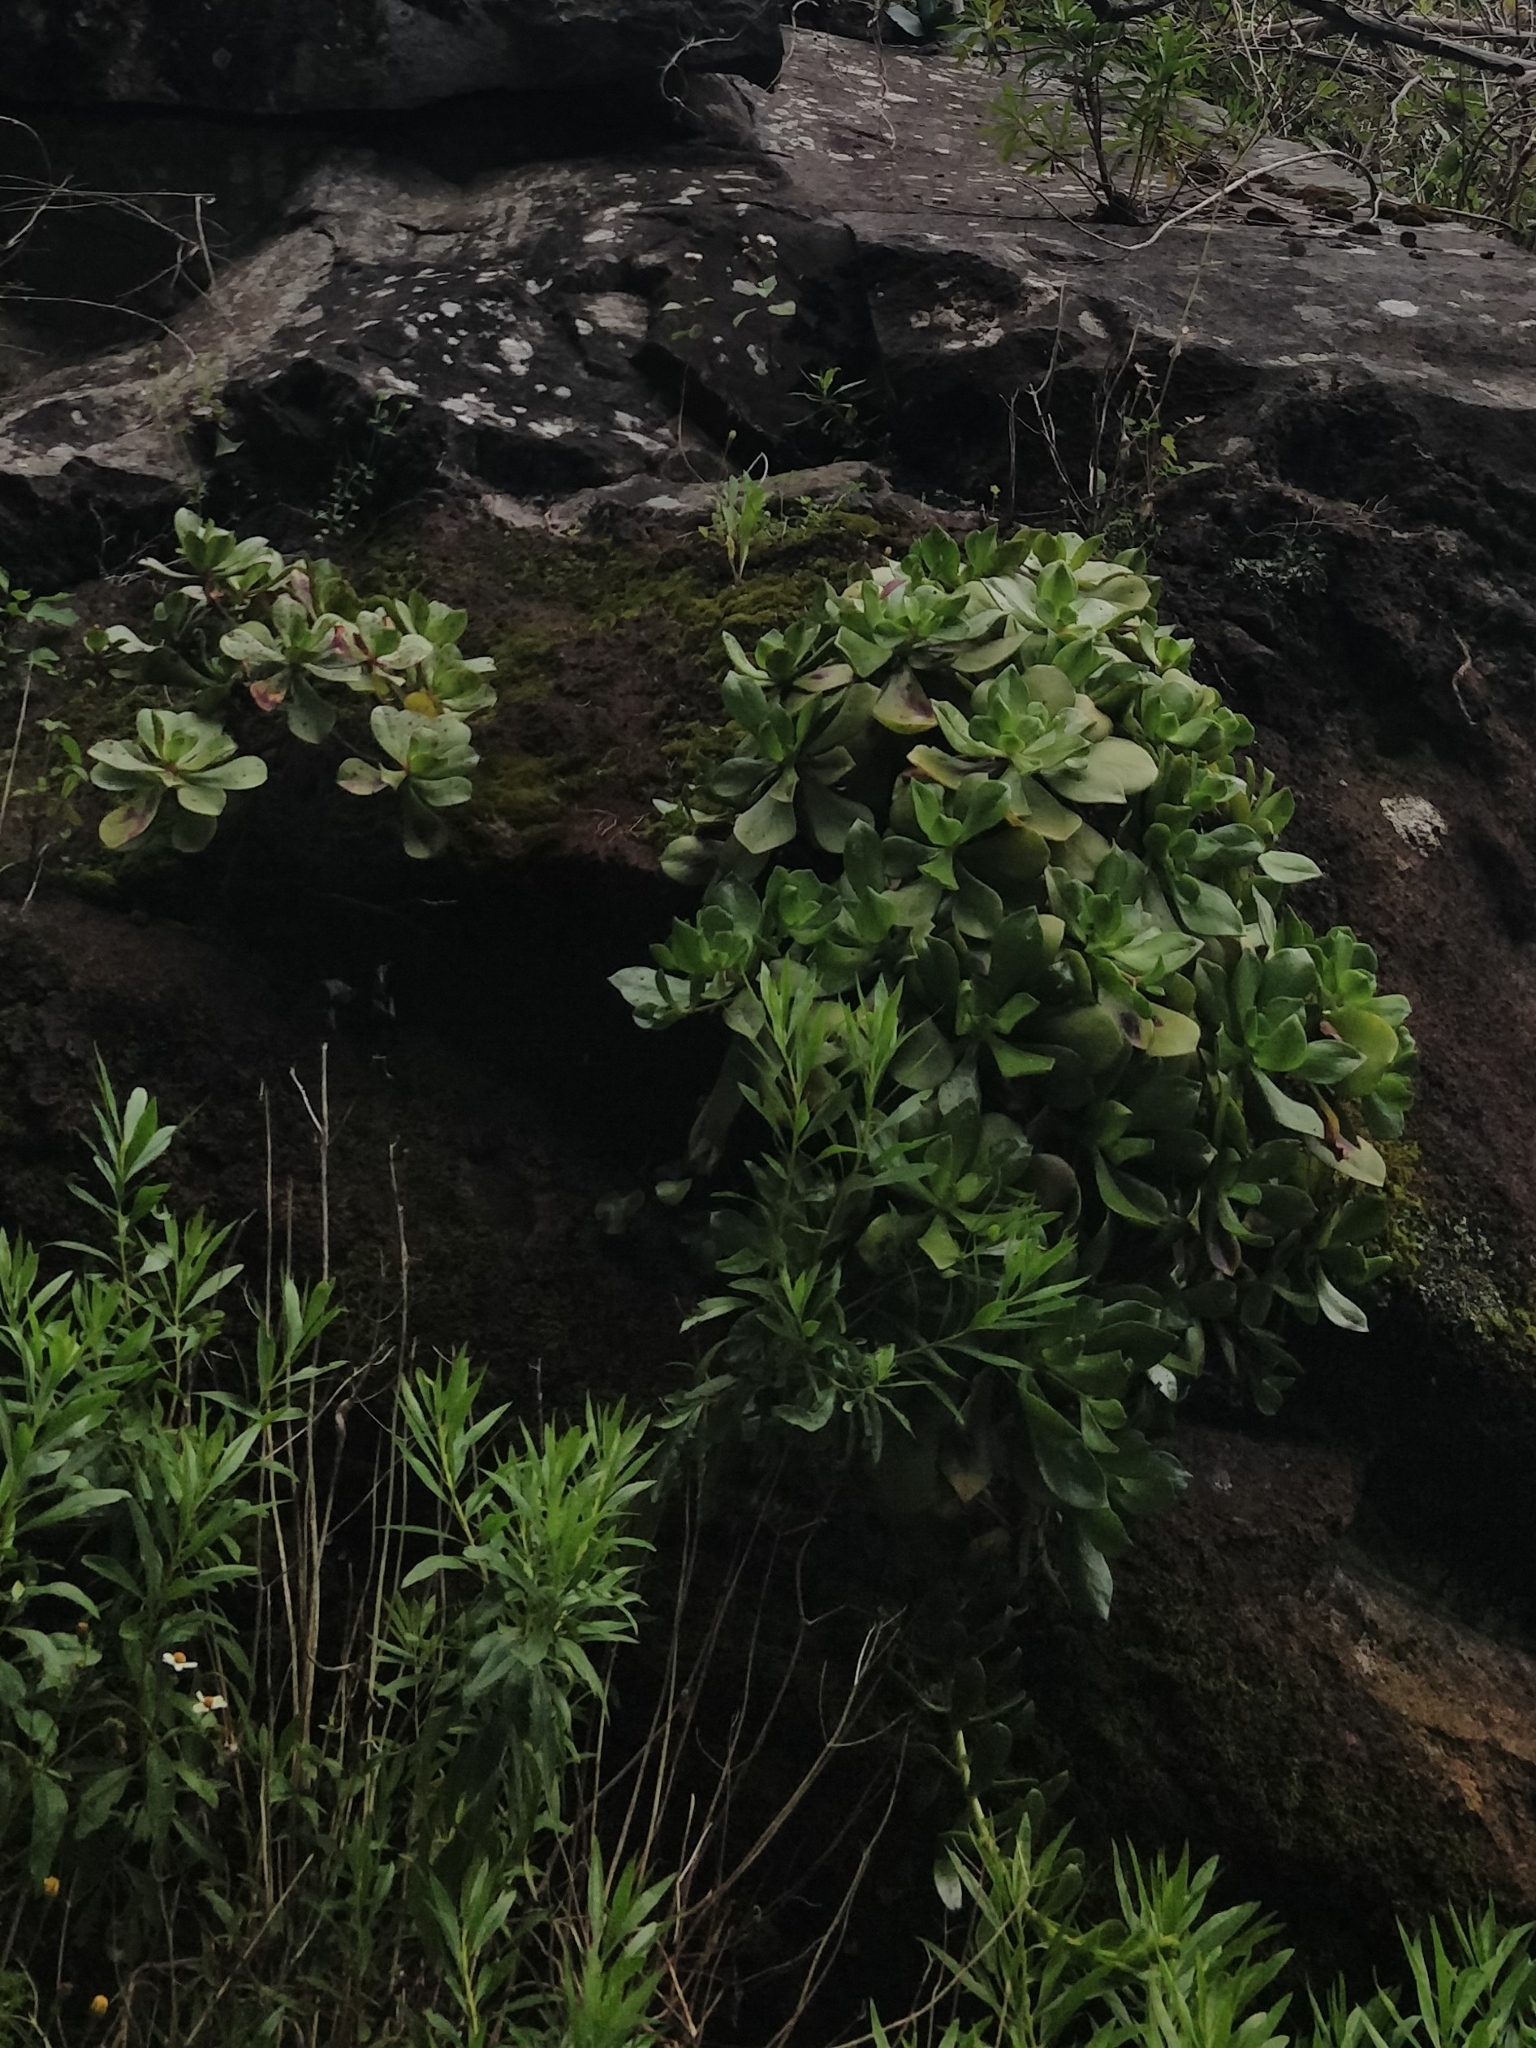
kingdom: Plantae
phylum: Tracheophyta
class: Magnoliopsida
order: Saxifragales
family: Crassulaceae
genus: Aeonium
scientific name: Aeonium glutinosum
